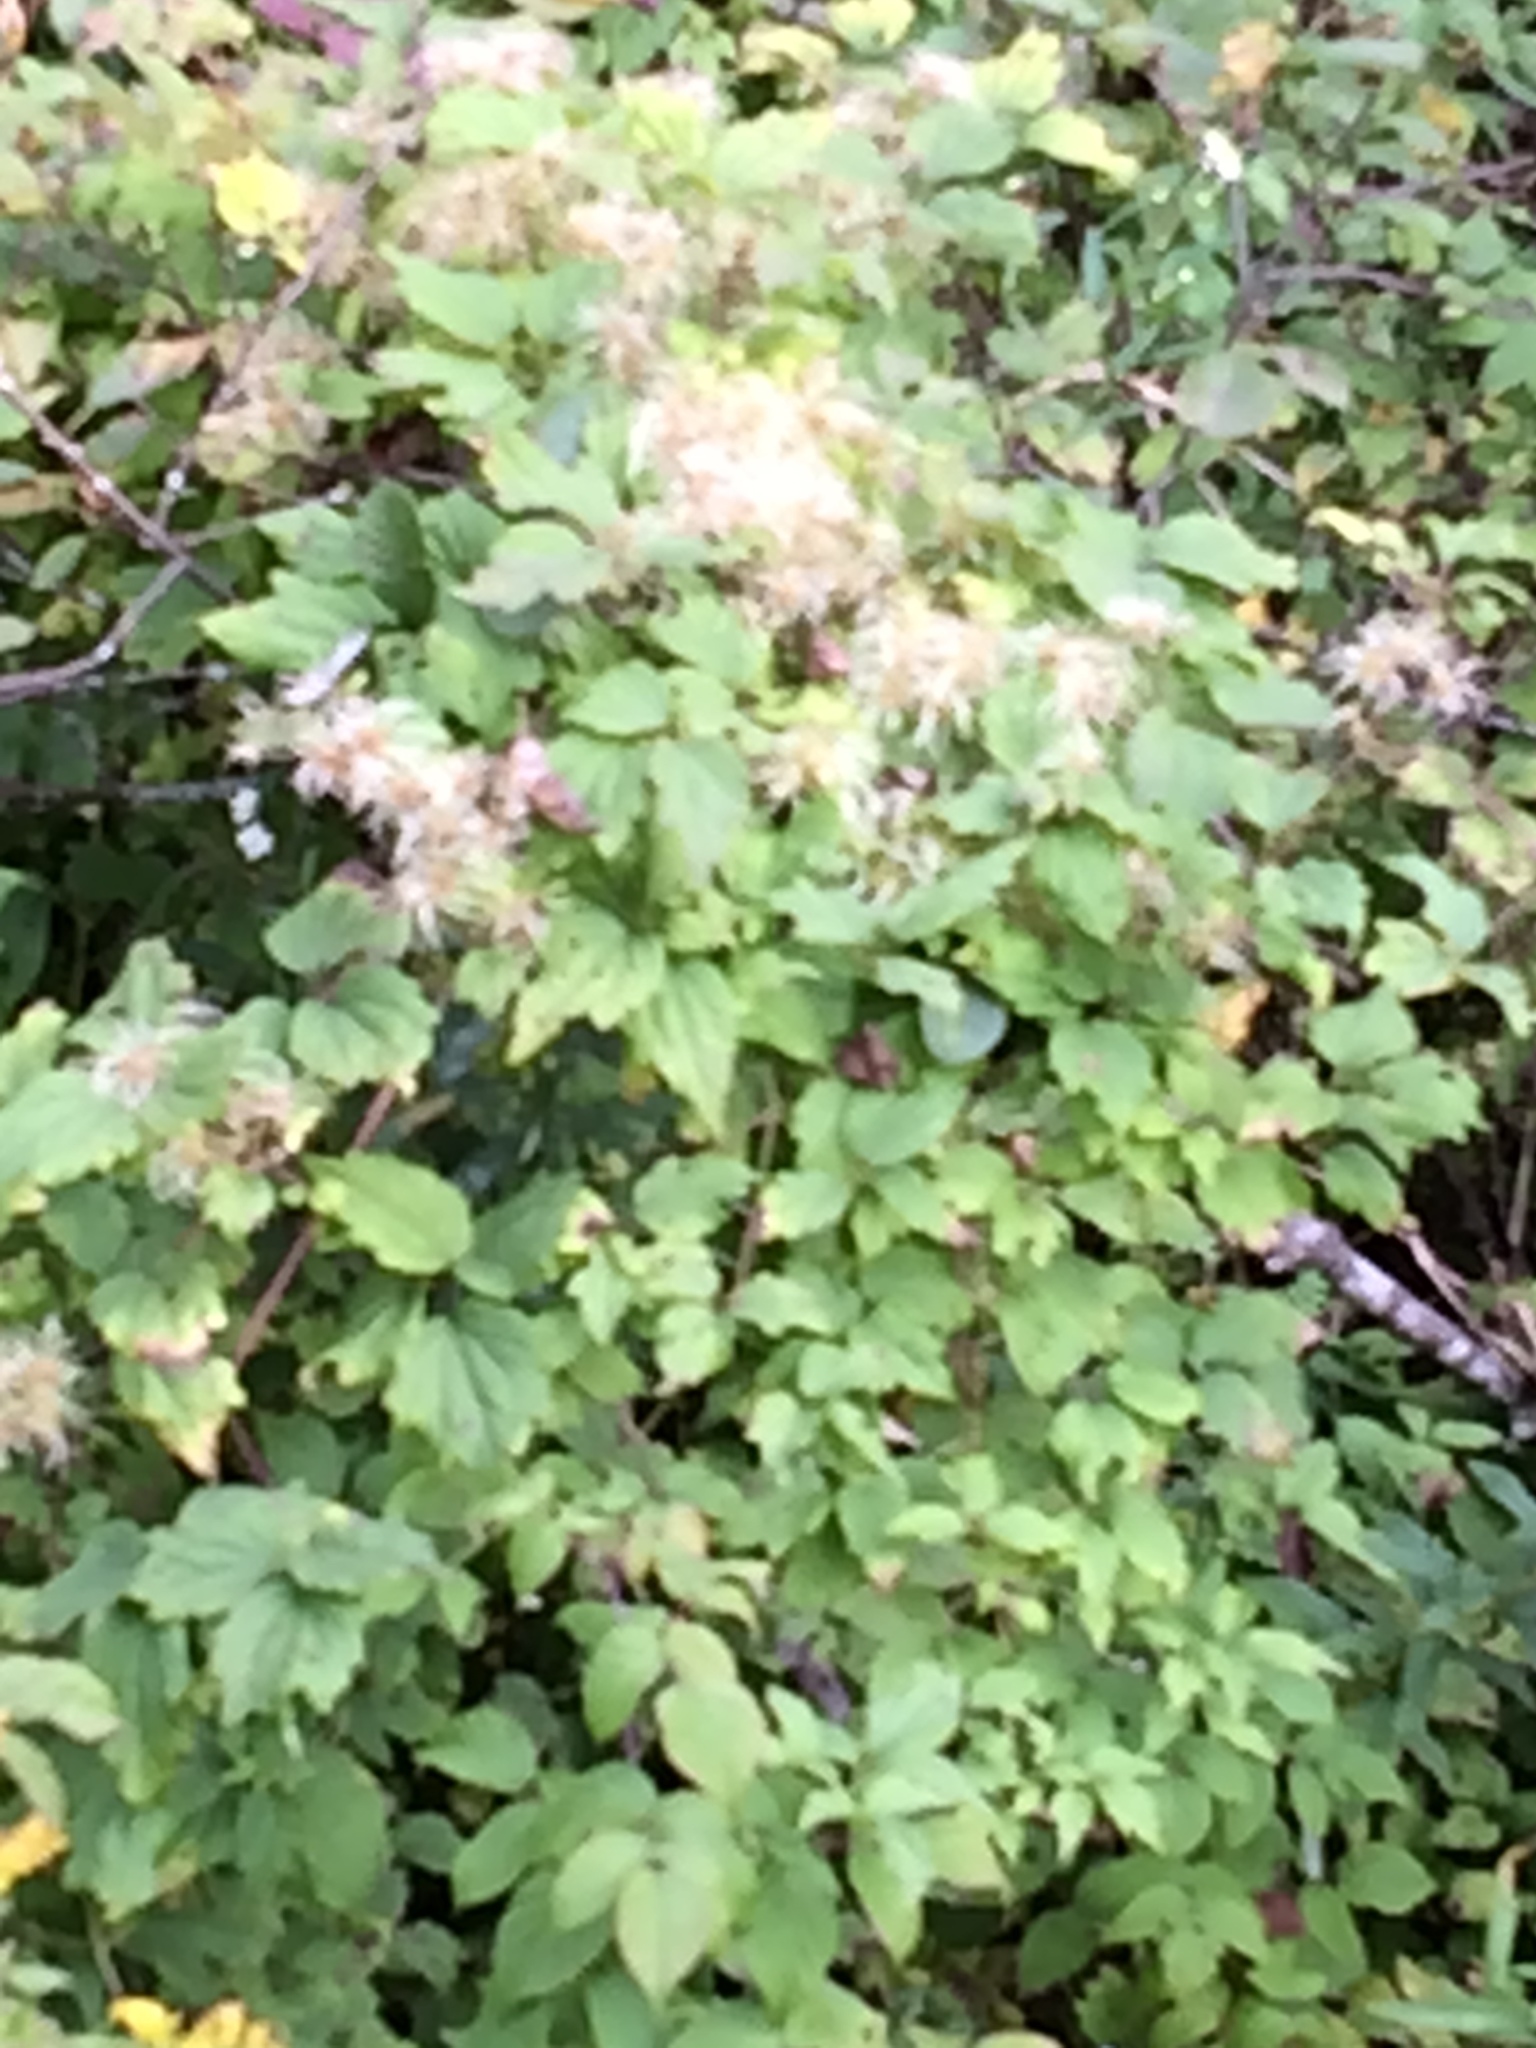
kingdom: Plantae
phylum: Tracheophyta
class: Magnoliopsida
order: Ranunculales
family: Ranunculaceae
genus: Clematis
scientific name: Clematis virginiana
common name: Virgin's-bower
